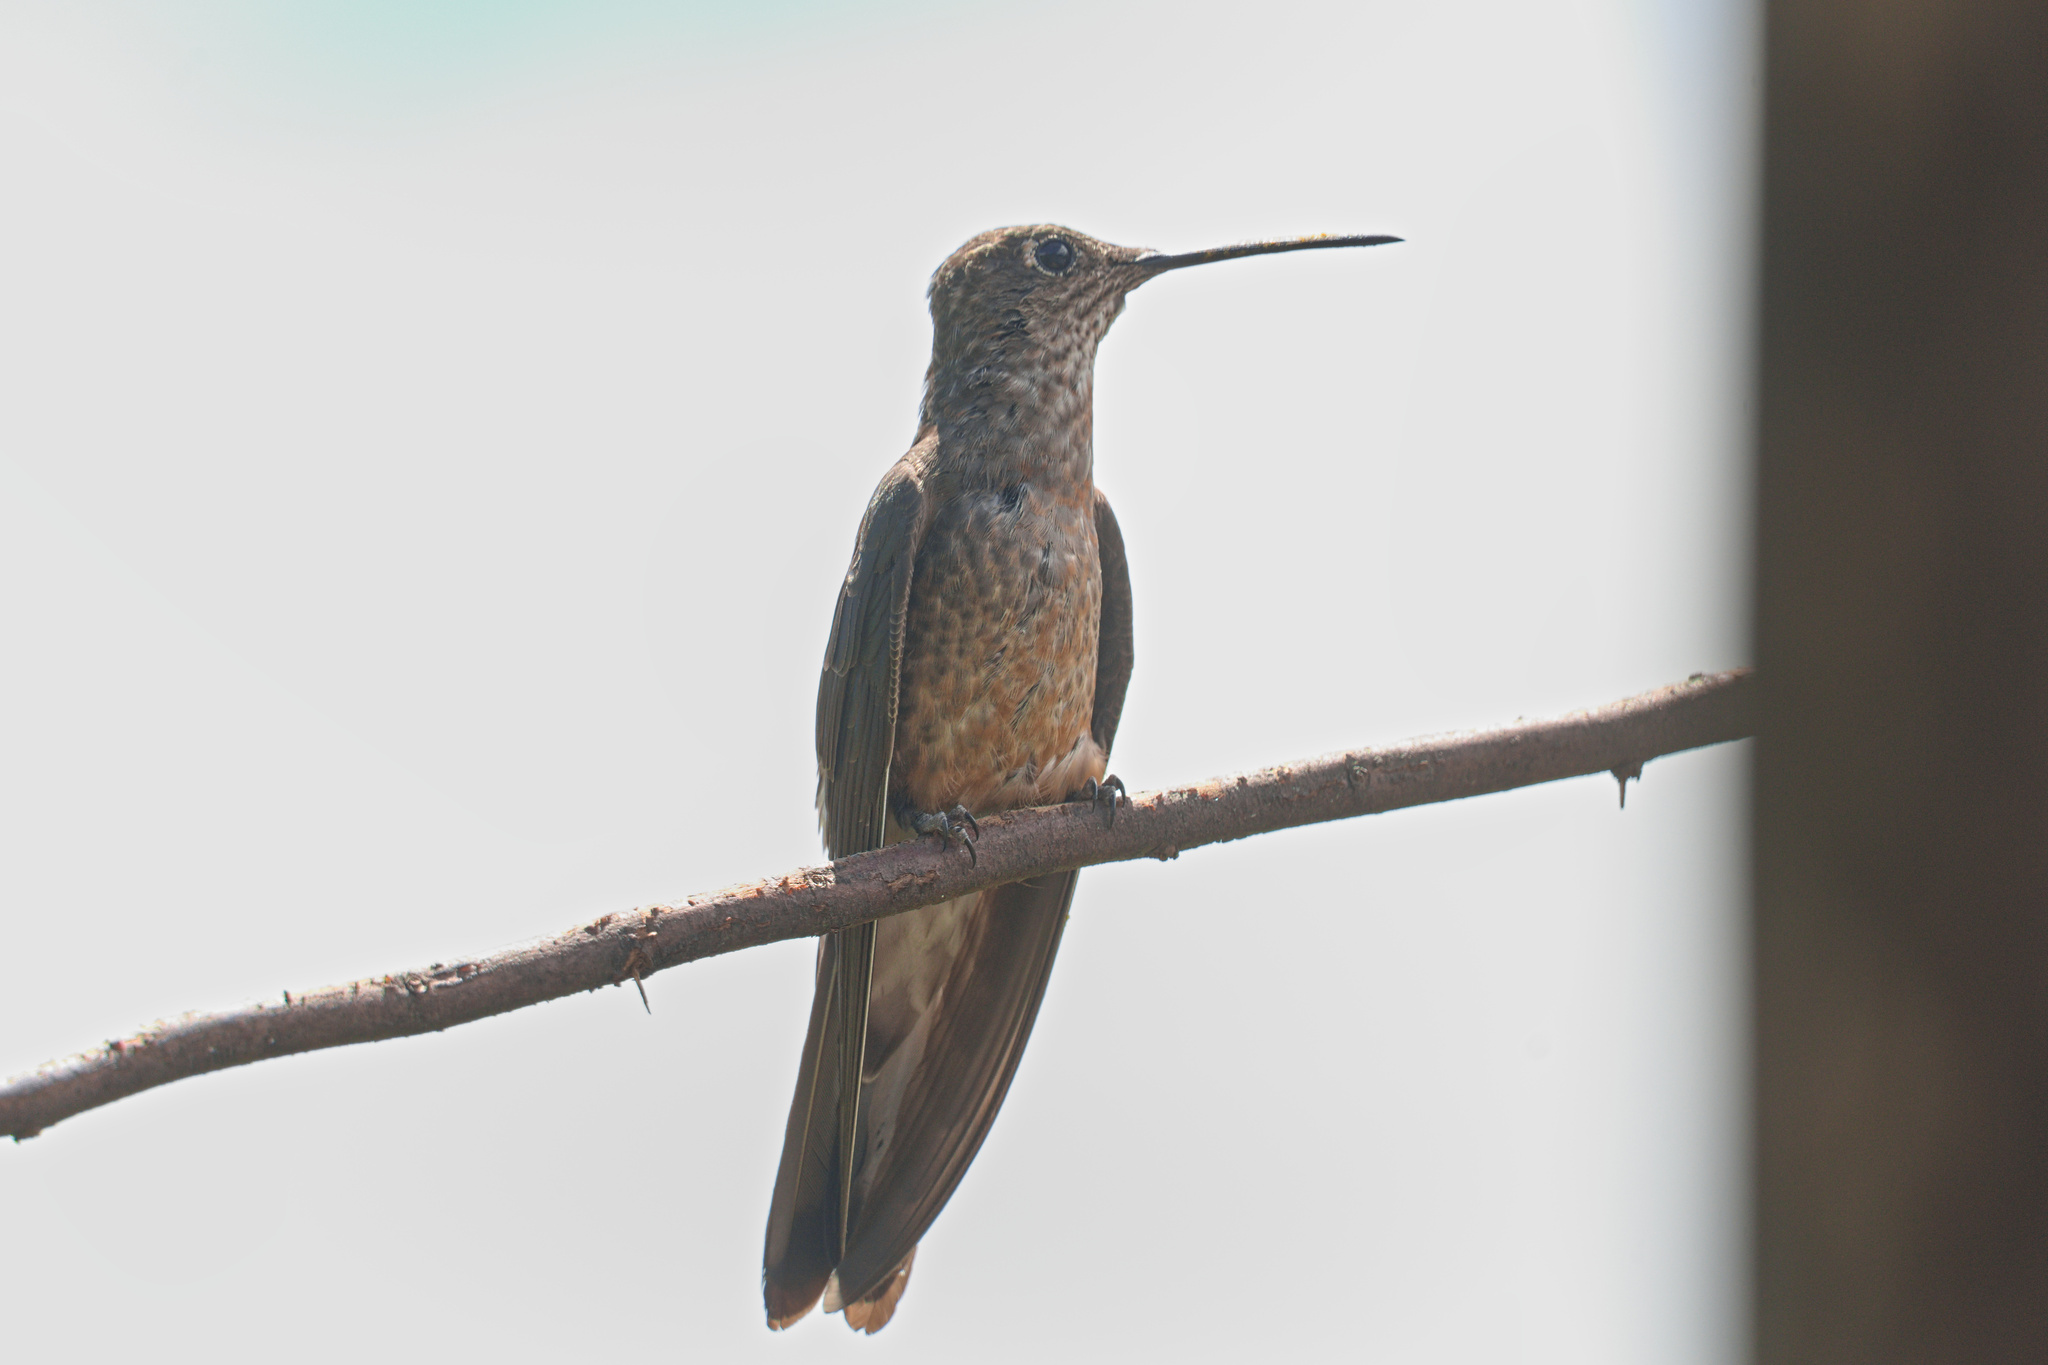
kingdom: Animalia
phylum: Chordata
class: Aves
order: Apodiformes
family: Trochilidae
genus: Patagona
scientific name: Patagona gigas
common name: Giant hummingbird
